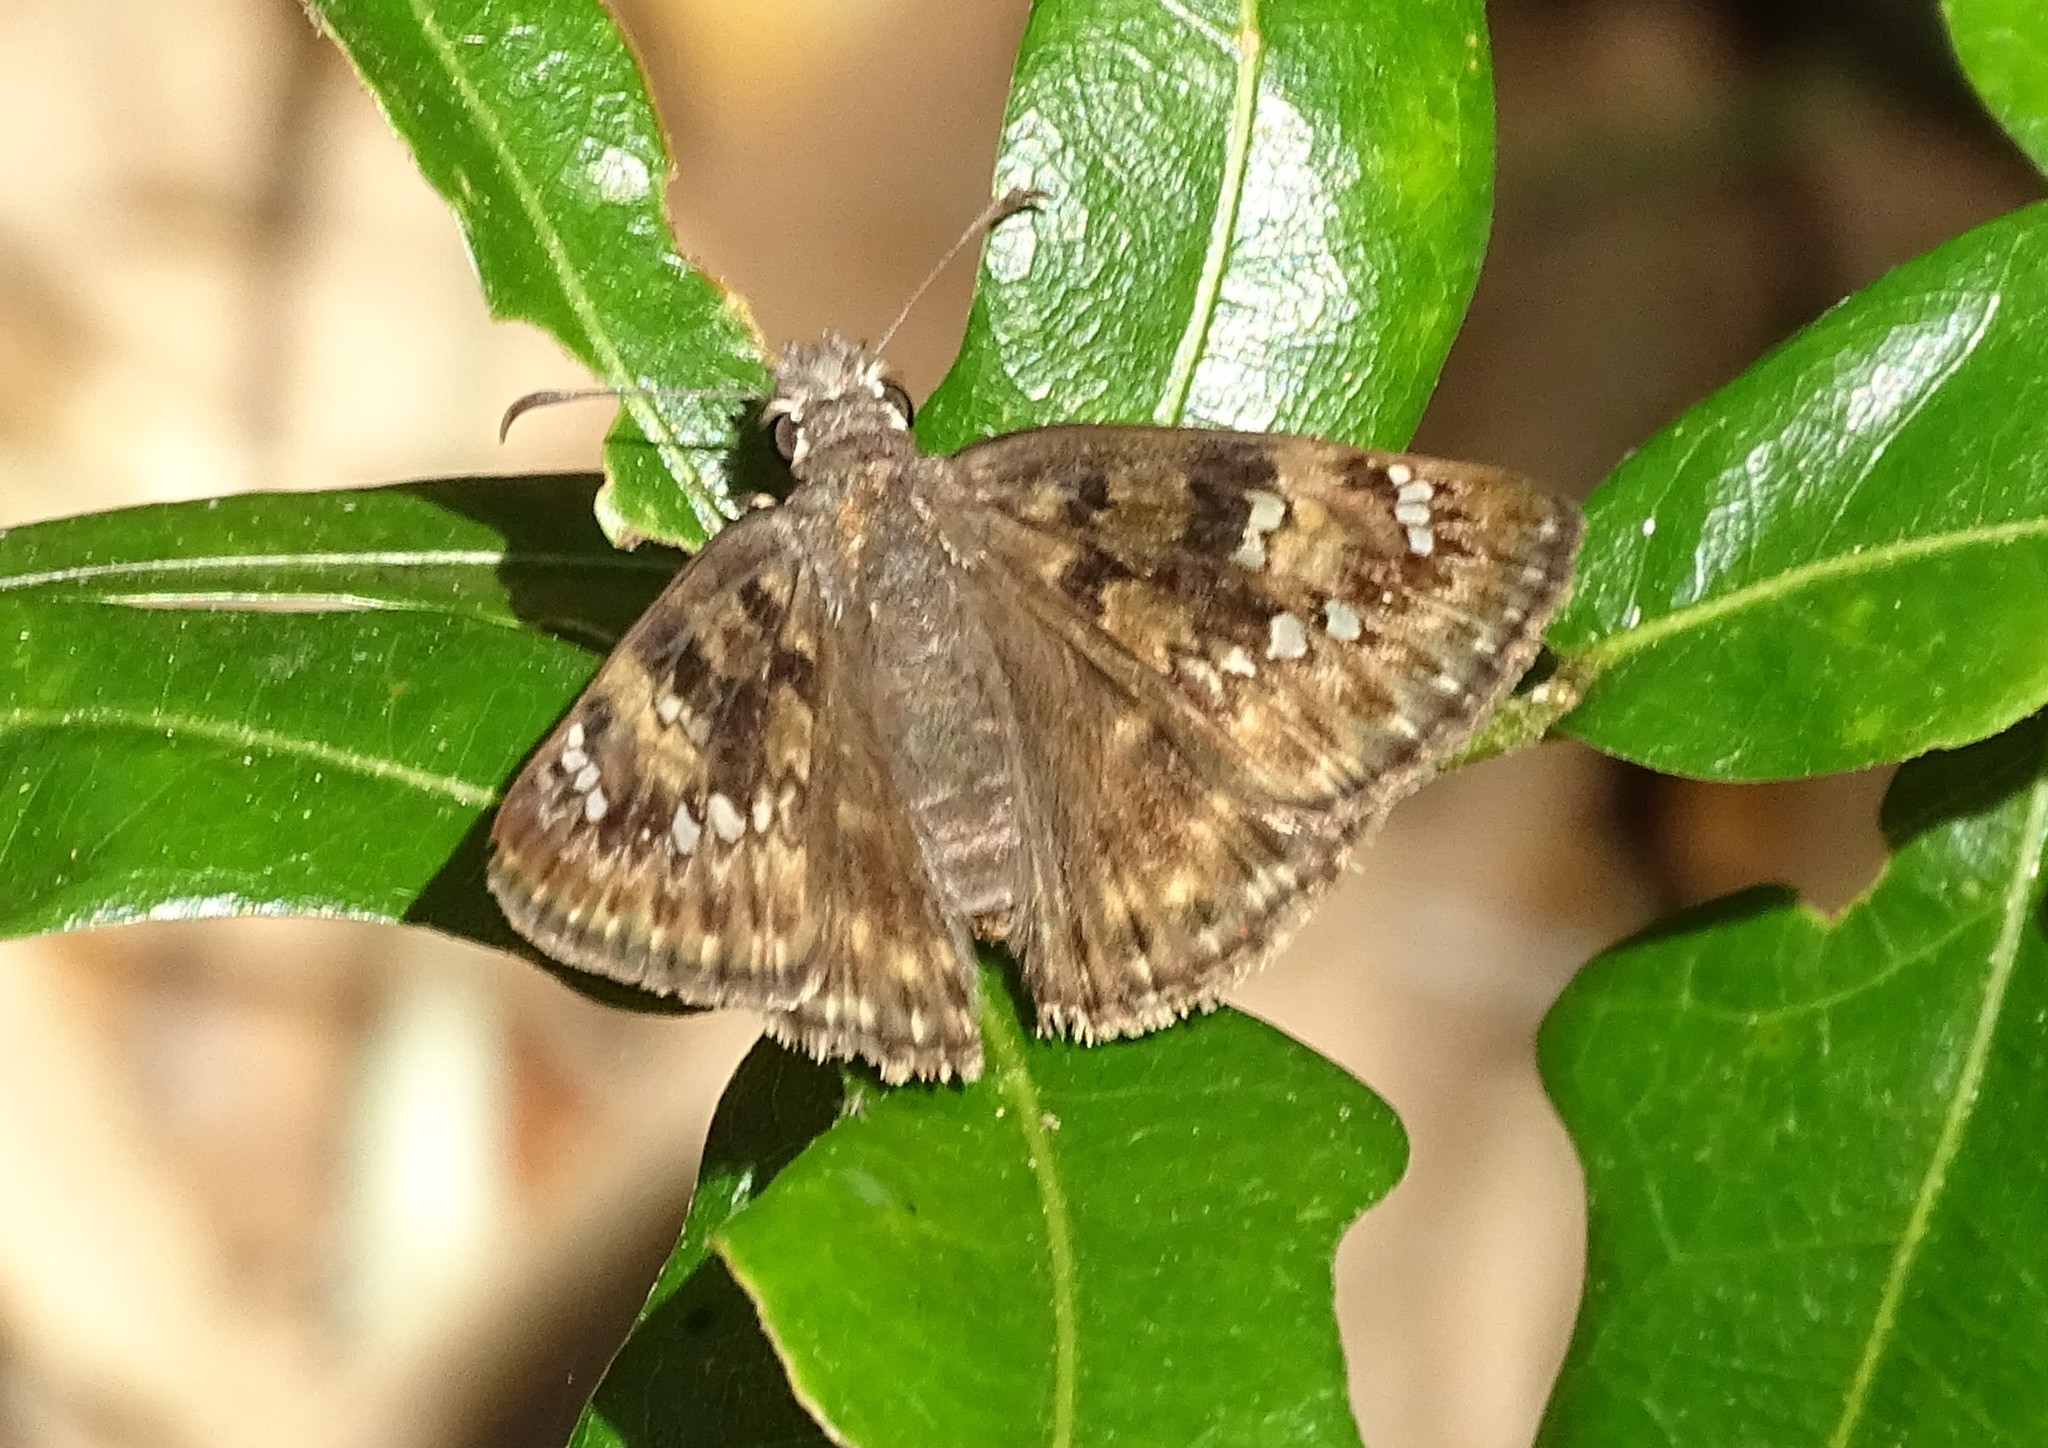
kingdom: Animalia
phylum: Arthropoda
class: Insecta
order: Lepidoptera
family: Hesperiidae
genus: Erynnis
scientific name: Erynnis horatius
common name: Horace's duskywing
